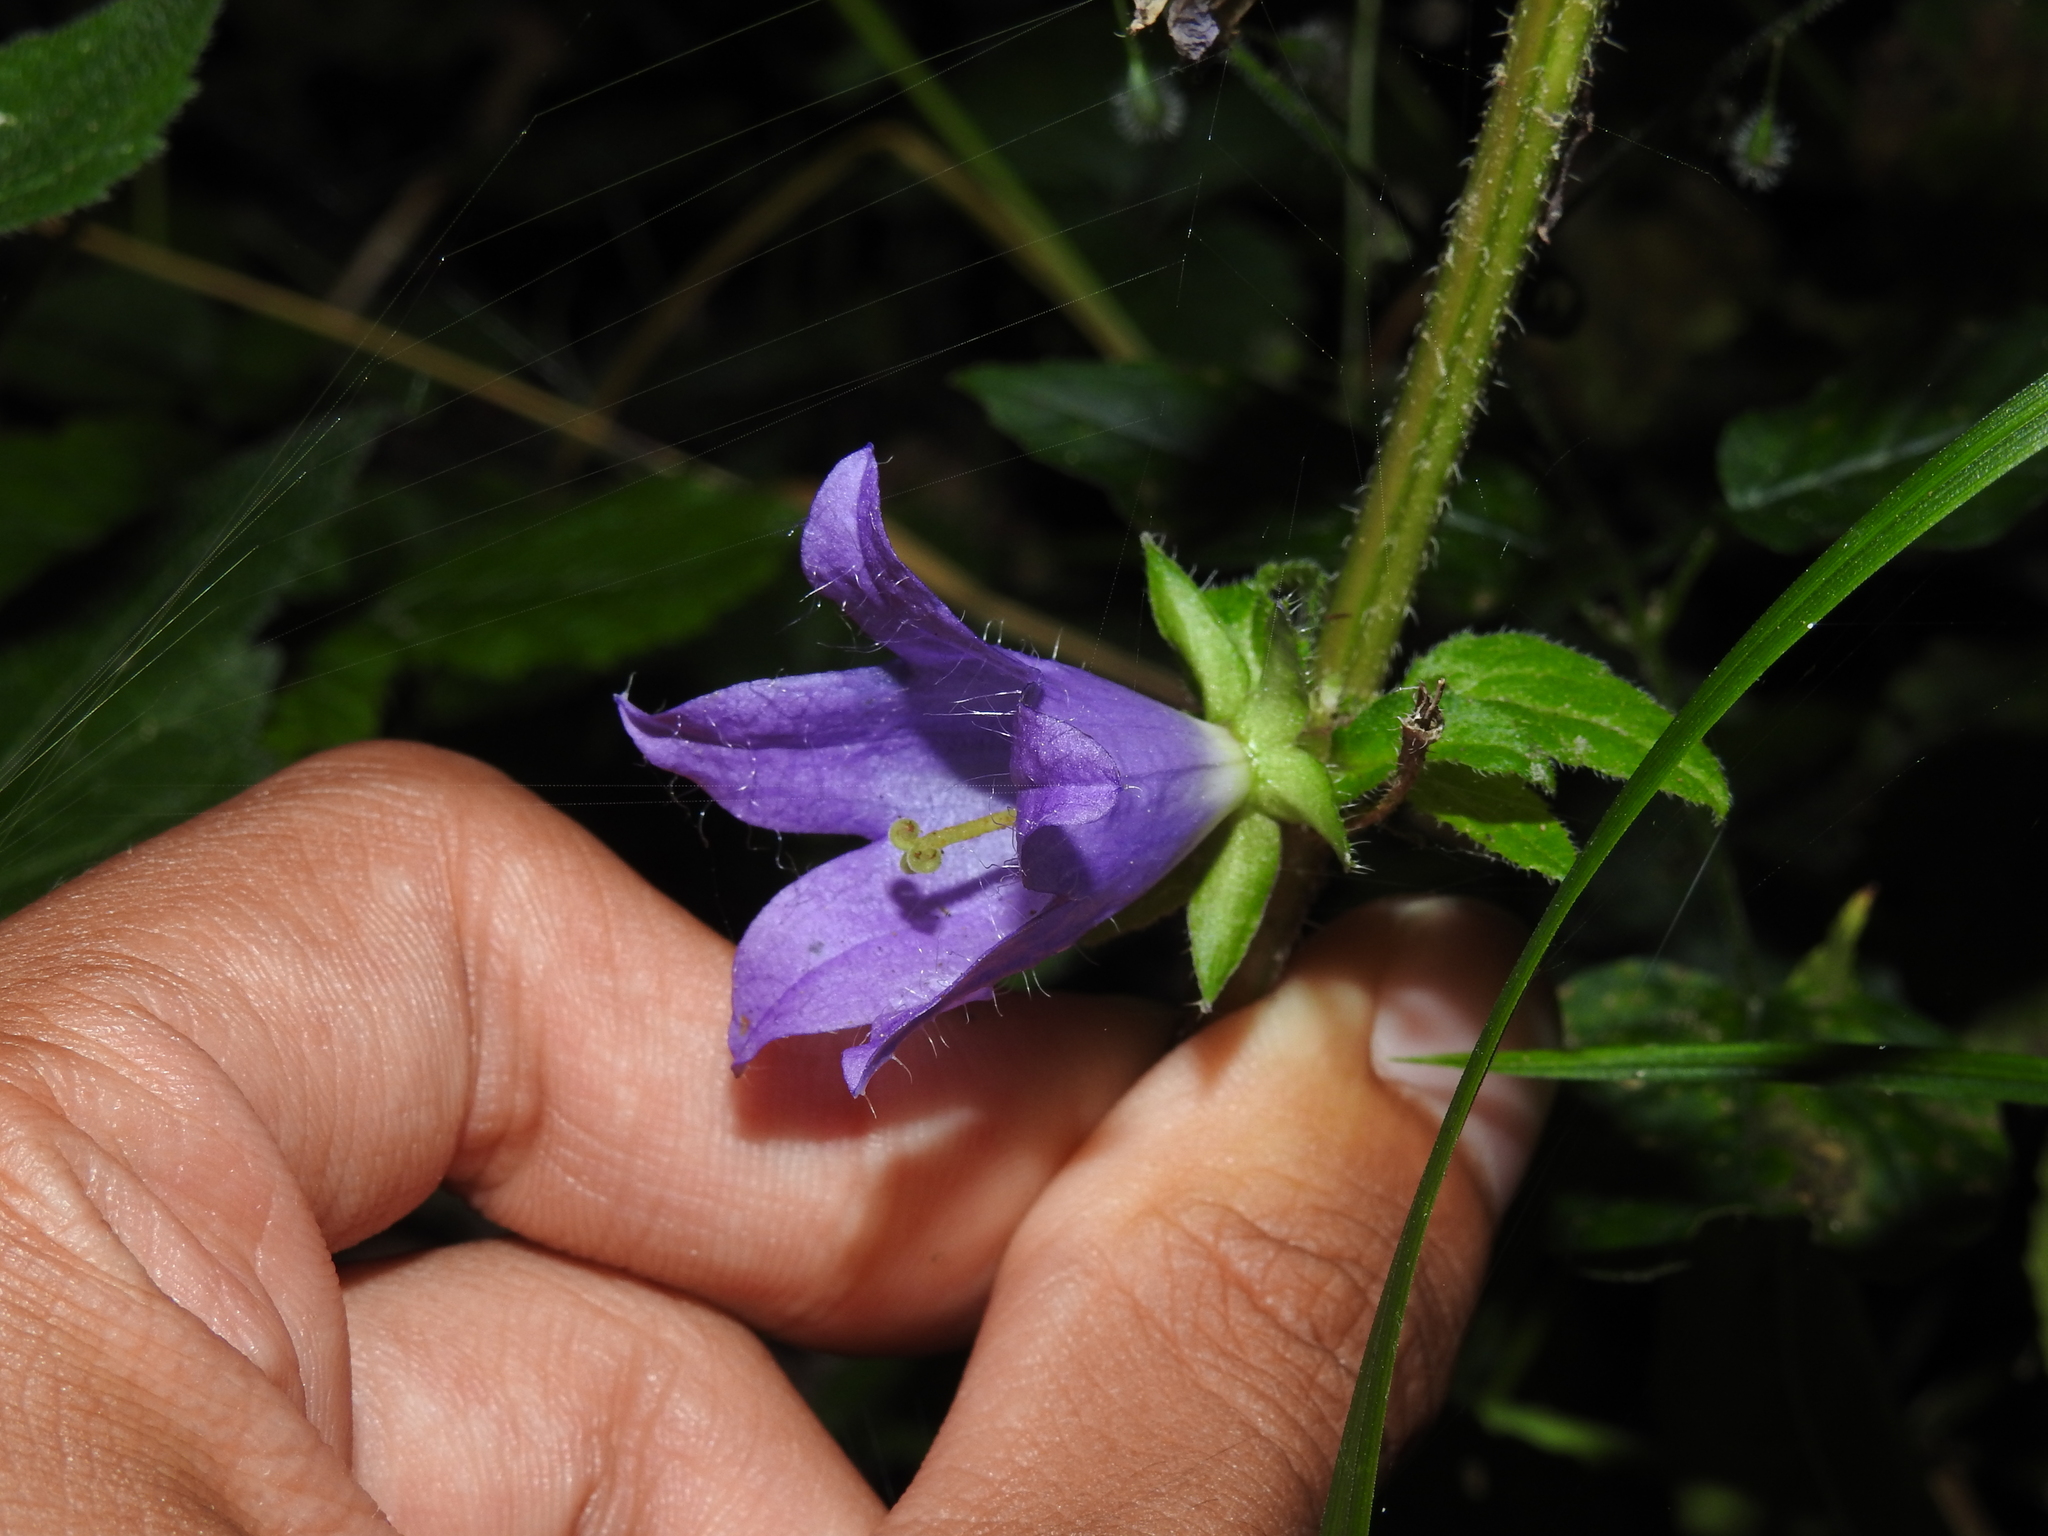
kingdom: Plantae
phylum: Tracheophyta
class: Magnoliopsida
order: Asterales
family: Campanulaceae
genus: Campanula
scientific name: Campanula trachelium
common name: Nettle-leaved bellflower
